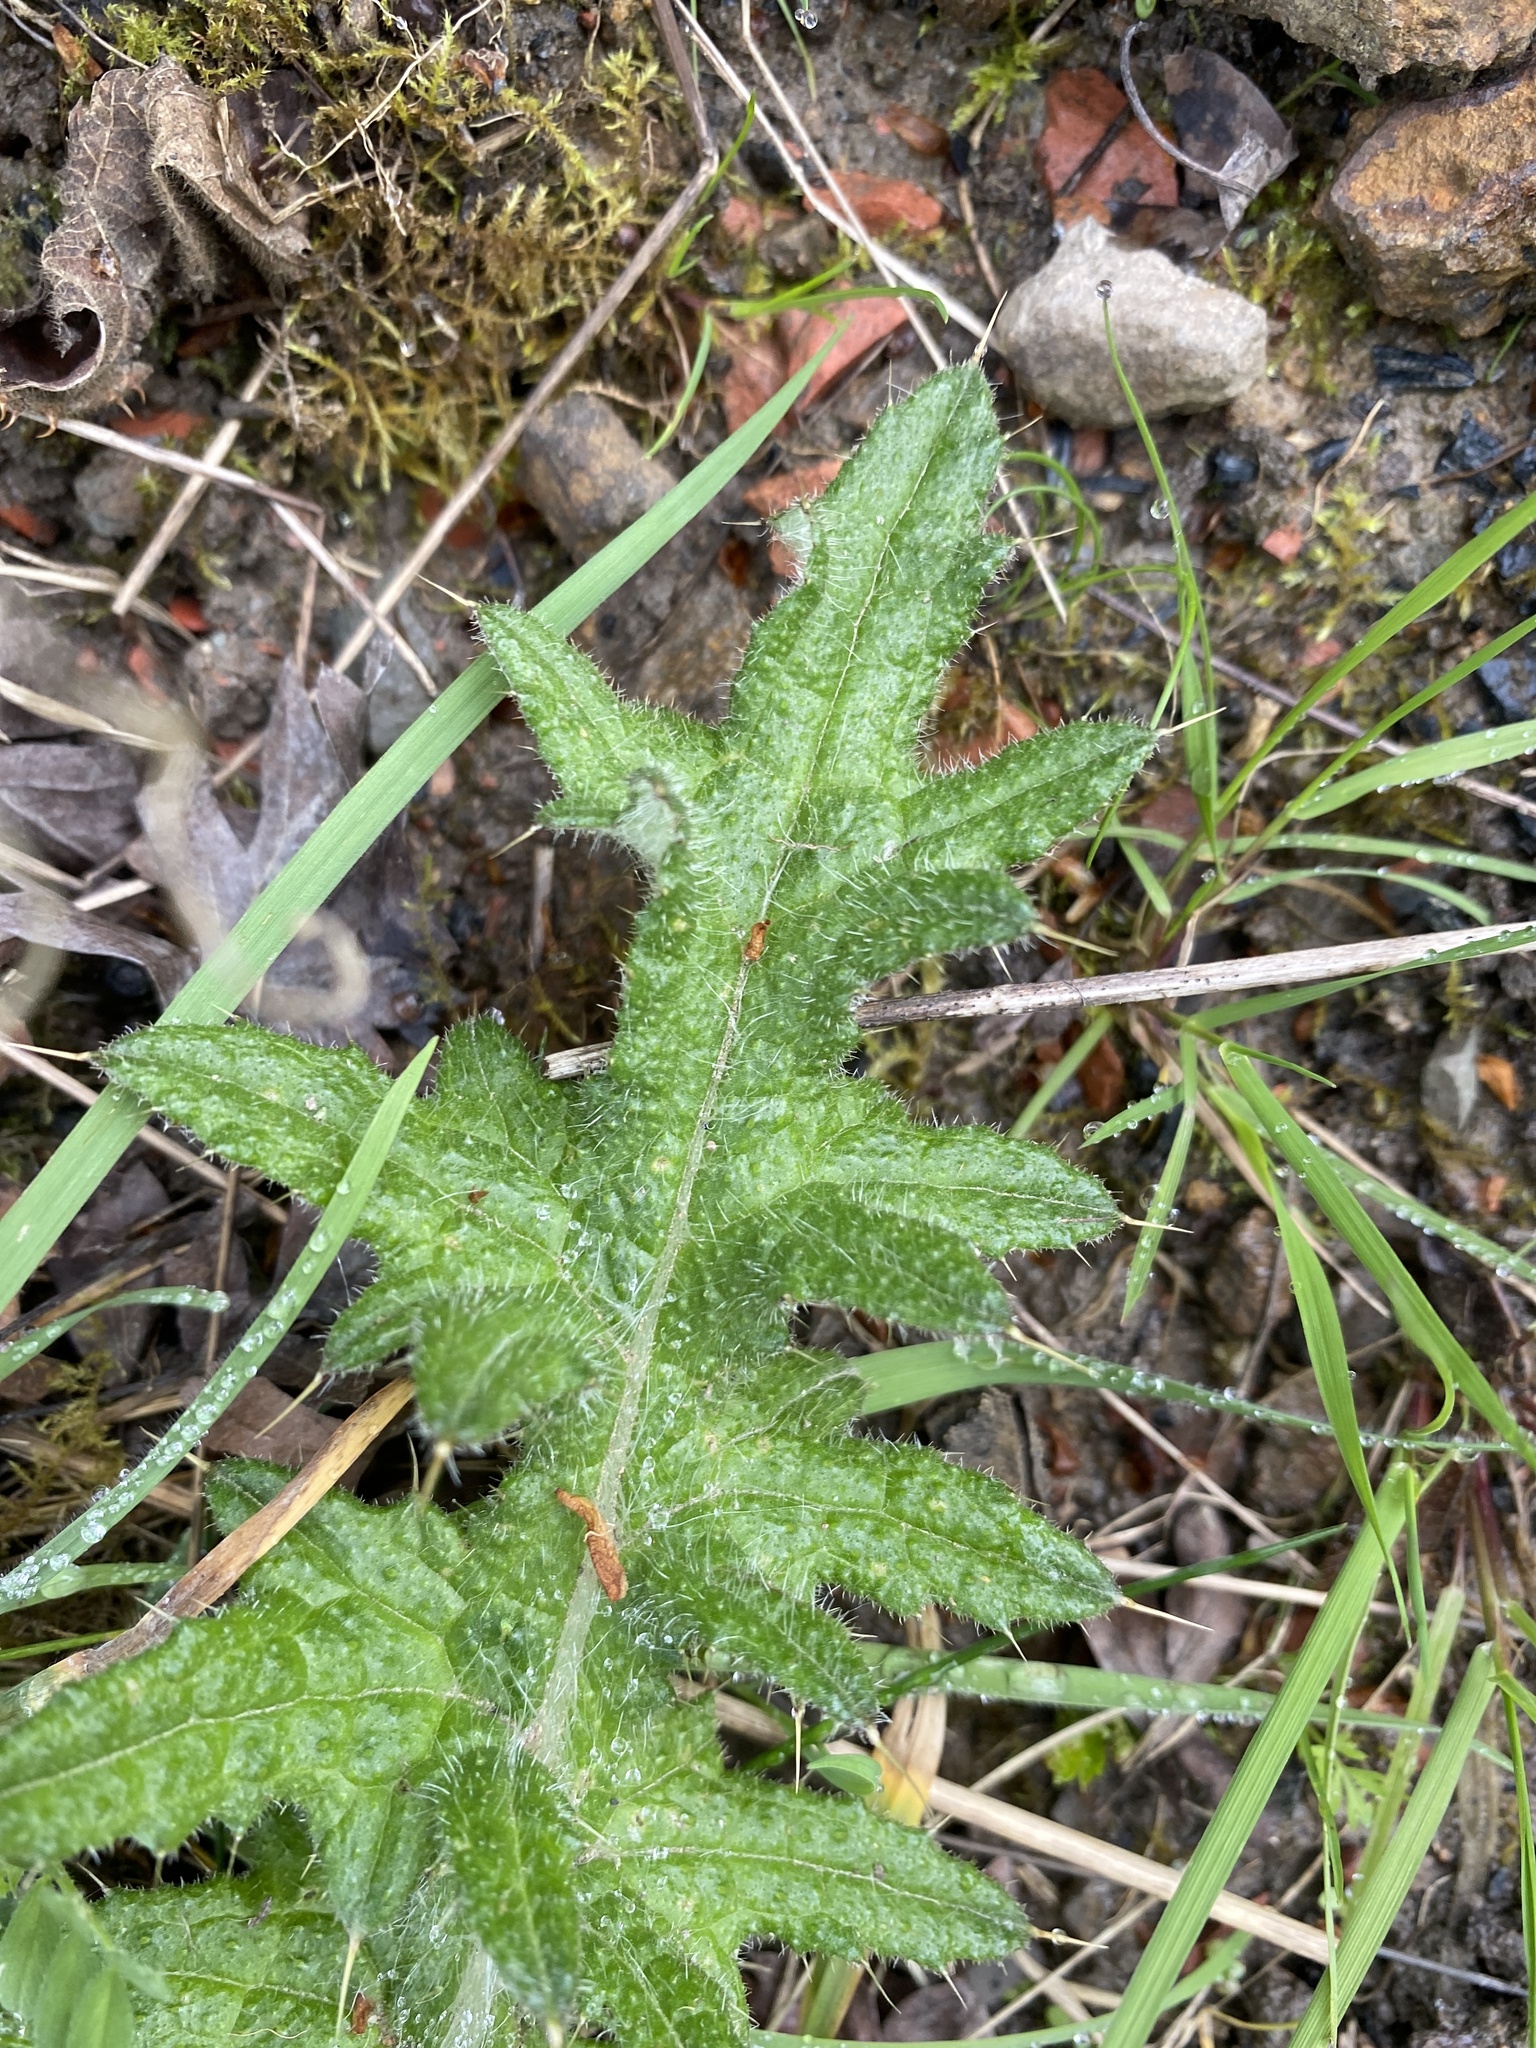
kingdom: Plantae
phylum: Tracheophyta
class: Magnoliopsida
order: Asterales
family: Asteraceae
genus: Cirsium
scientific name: Cirsium vulgare
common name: Bull thistle
